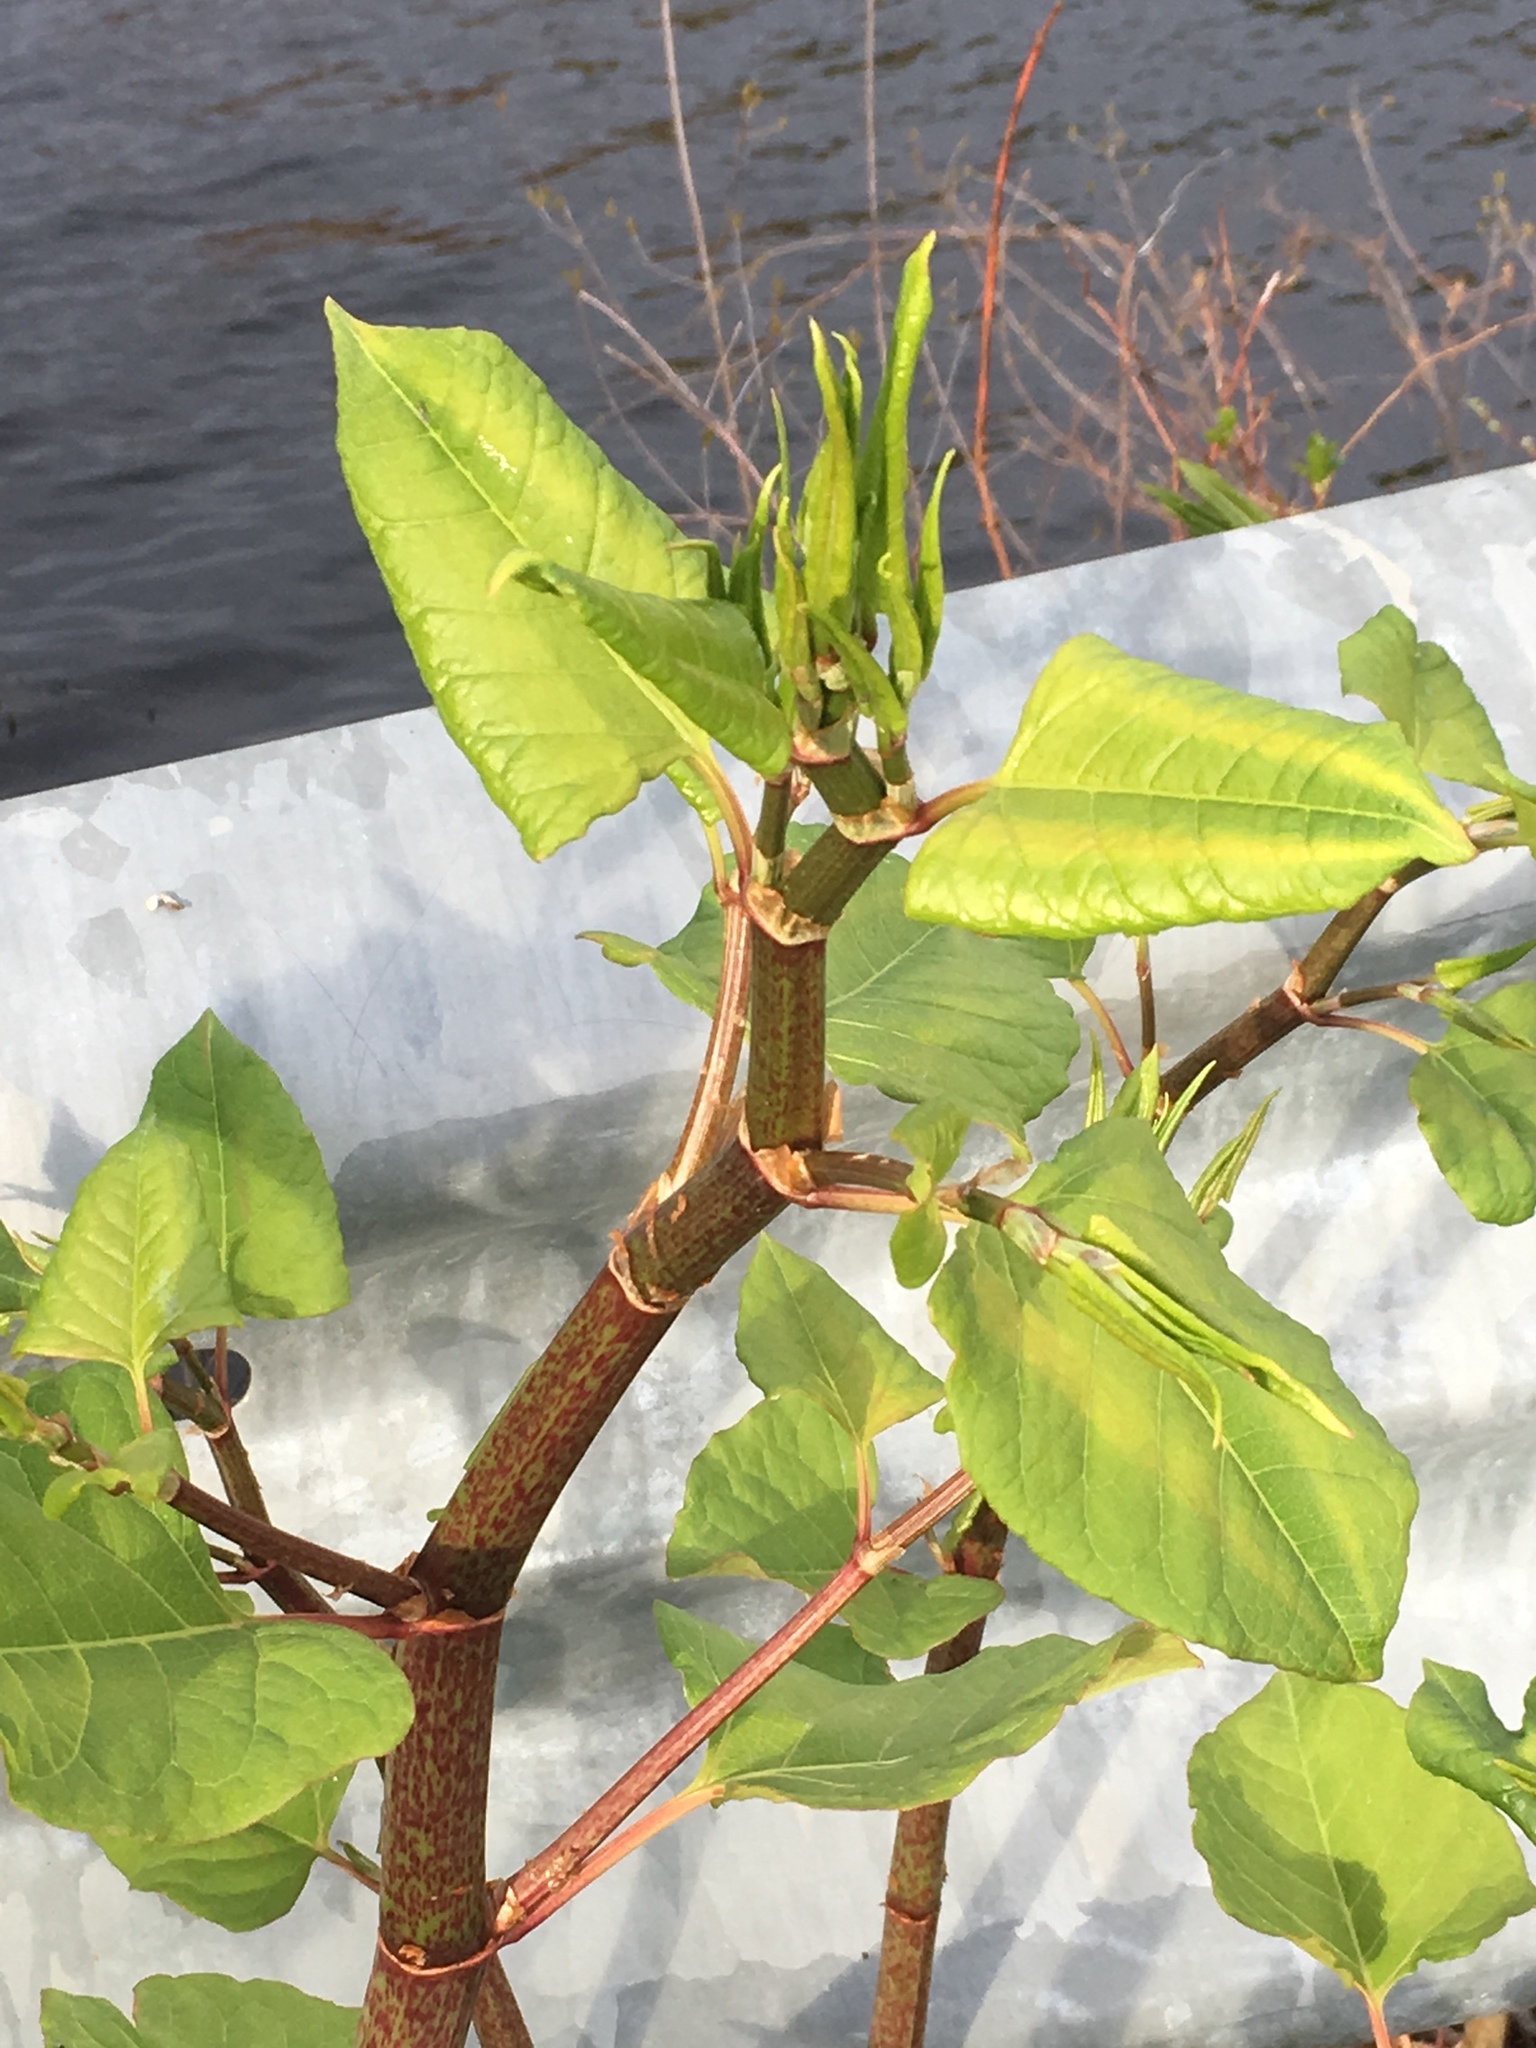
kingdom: Plantae
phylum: Tracheophyta
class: Magnoliopsida
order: Caryophyllales
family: Polygonaceae
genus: Reynoutria
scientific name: Reynoutria japonica
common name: Japanese knotweed
